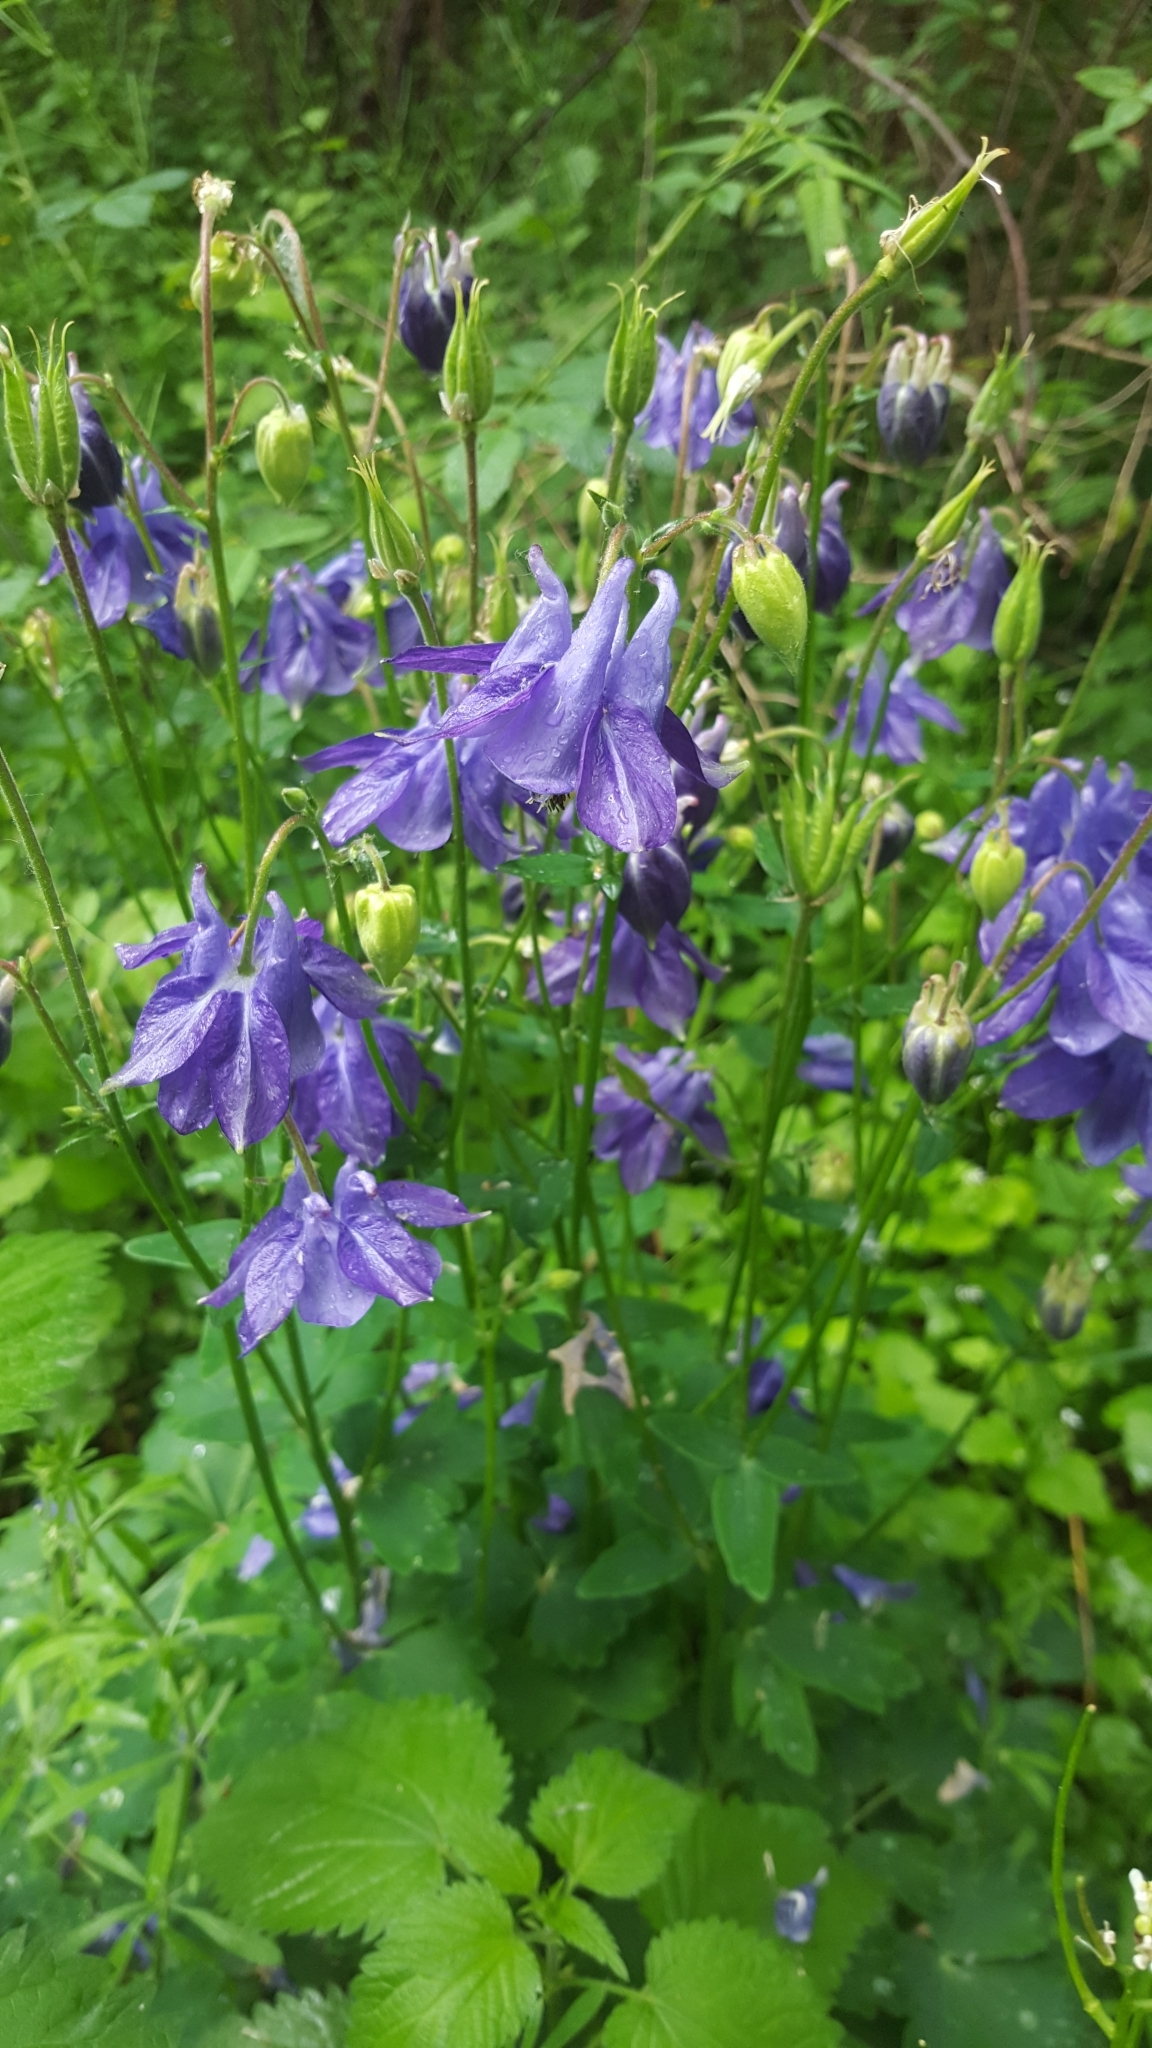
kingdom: Plantae
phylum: Tracheophyta
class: Magnoliopsida
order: Ranunculales
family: Ranunculaceae
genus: Aquilegia
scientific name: Aquilegia vulgaris
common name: Columbine
